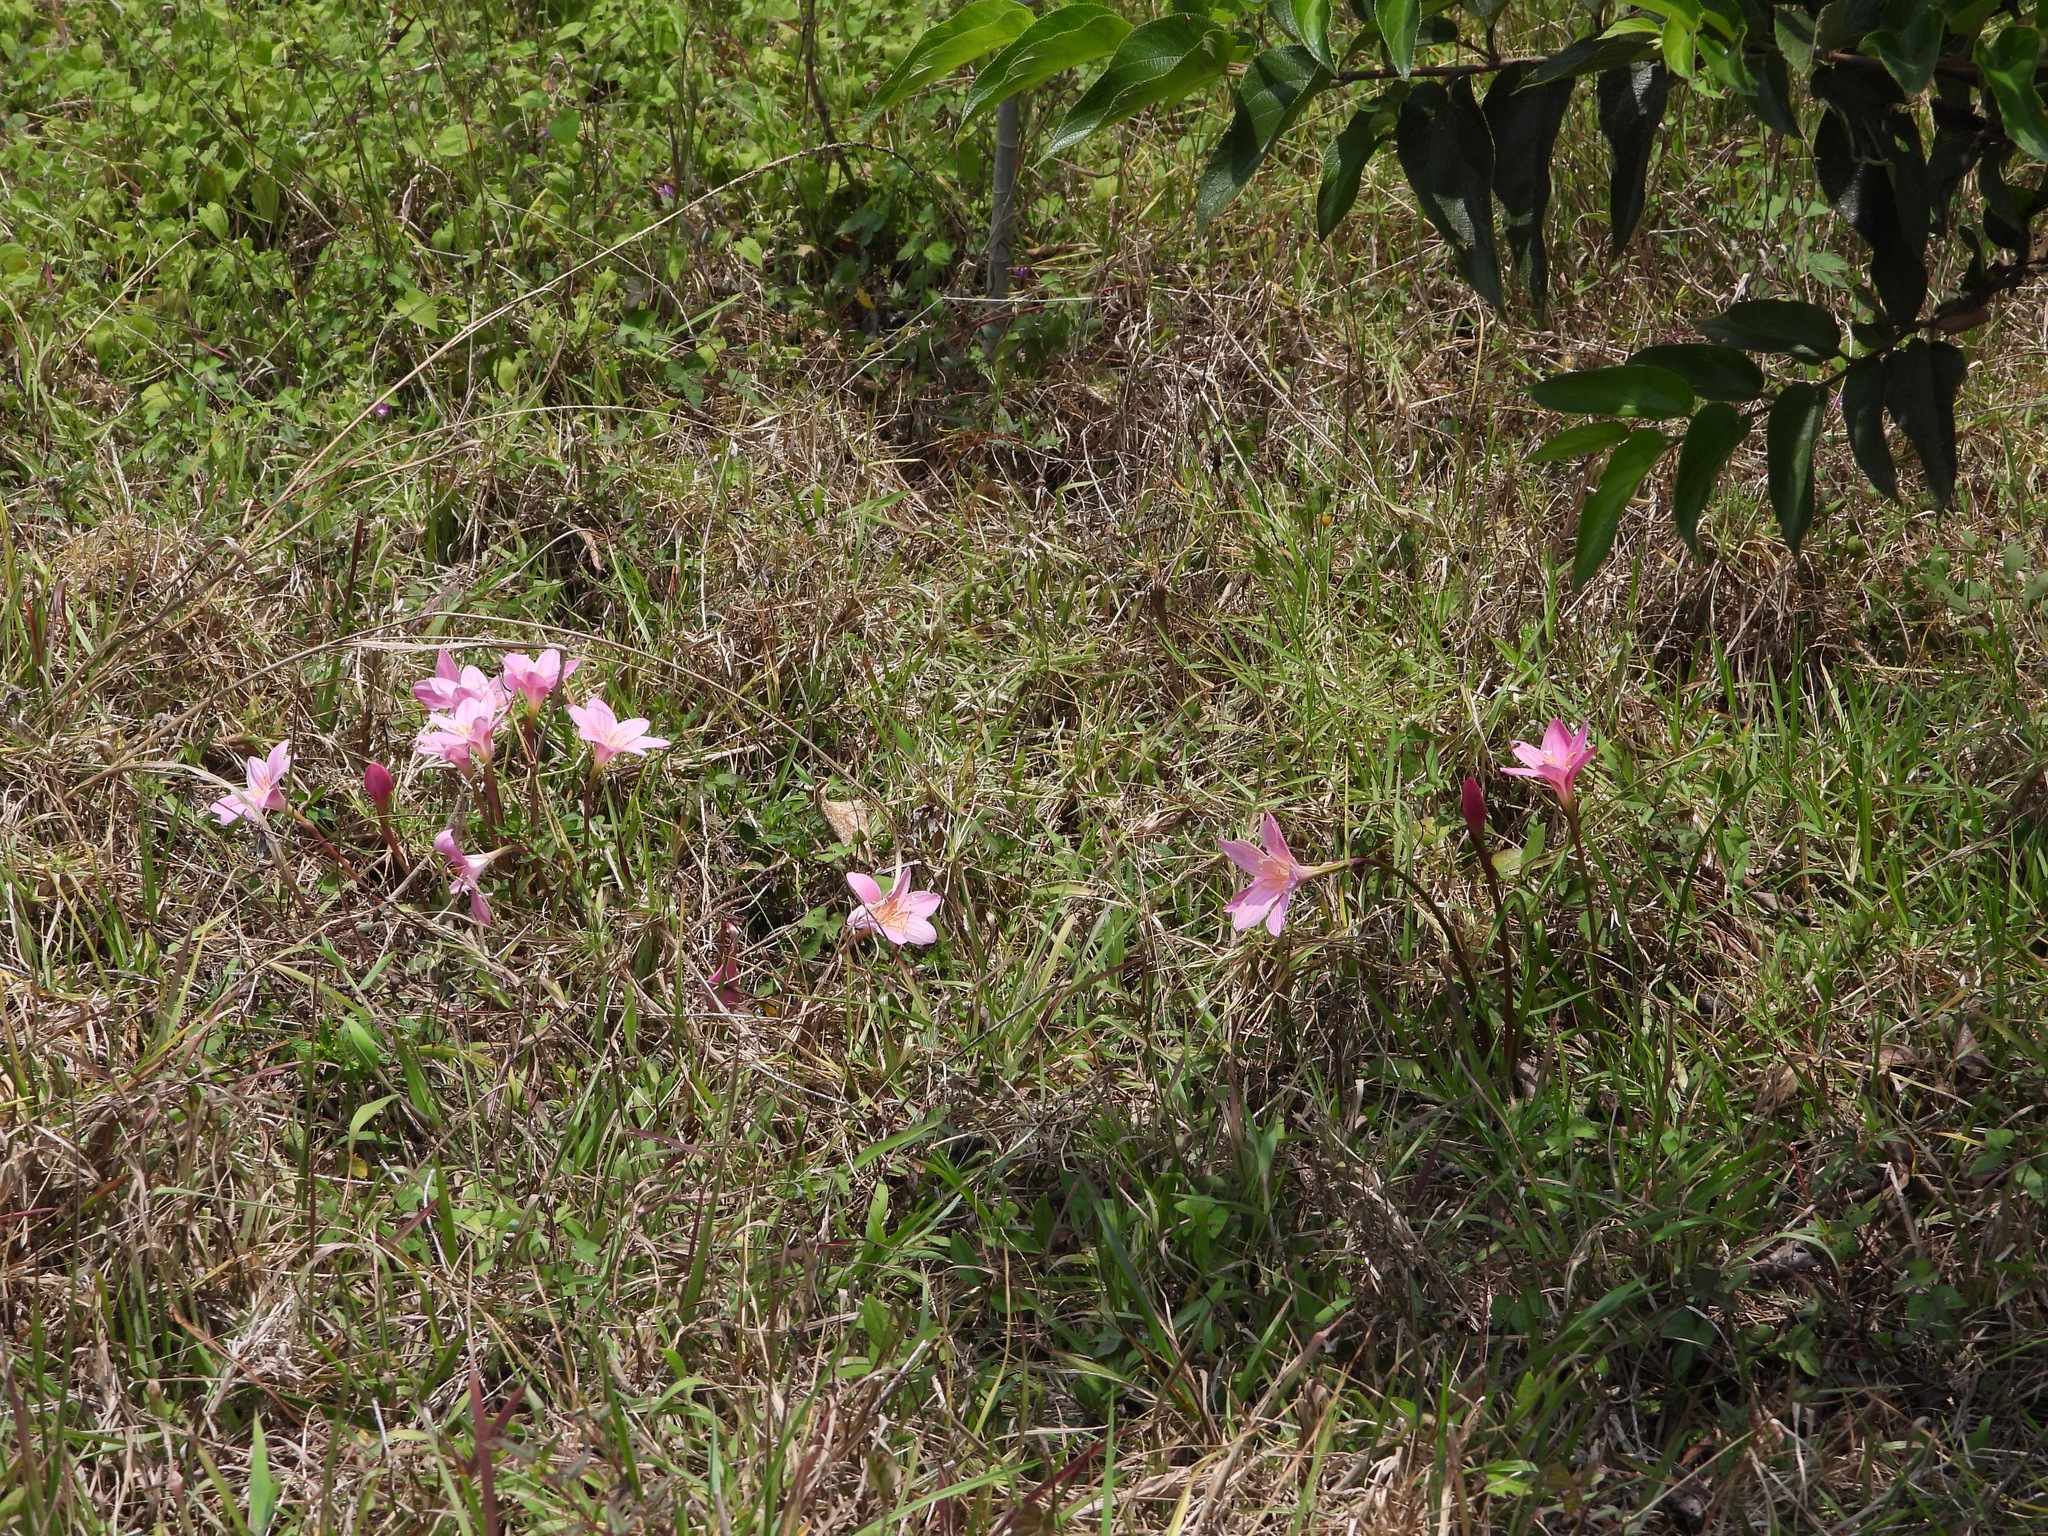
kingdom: Plantae
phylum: Tracheophyta
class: Liliopsida
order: Asparagales
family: Amaryllidaceae
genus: Zephyranthes
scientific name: Zephyranthes carinata
